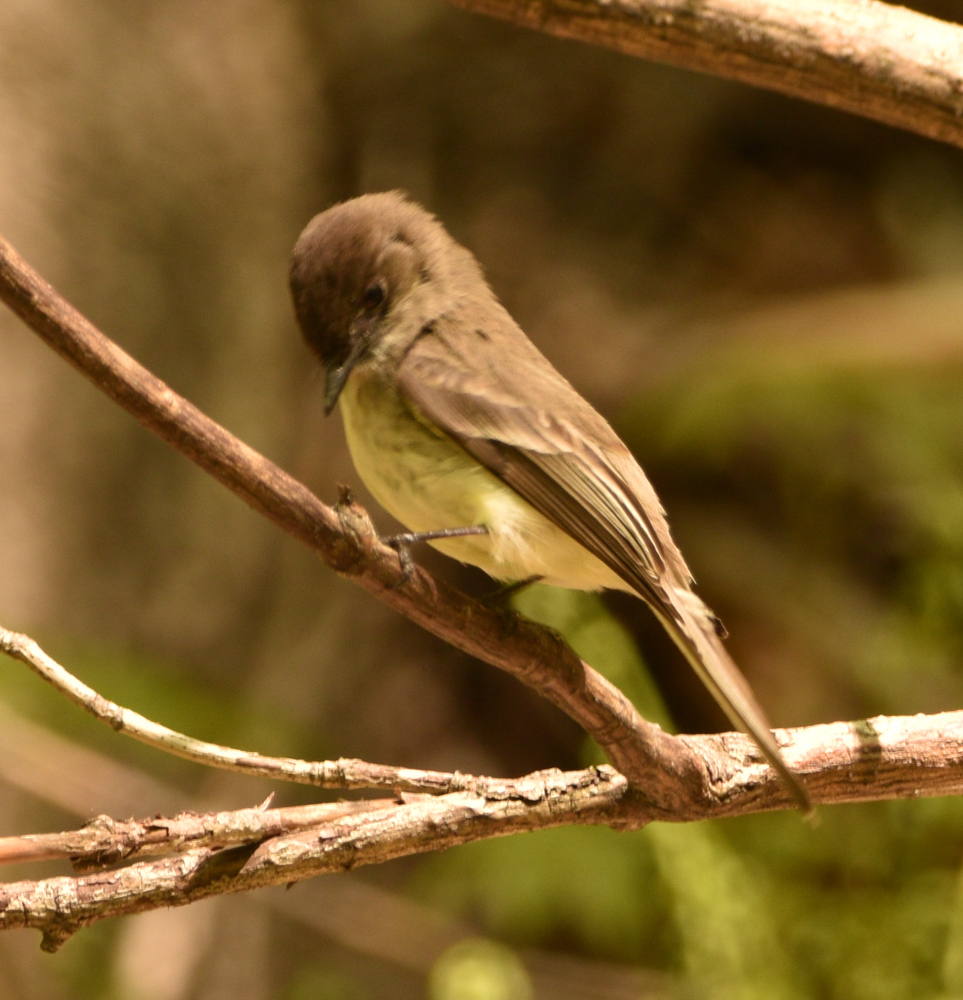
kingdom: Animalia
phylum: Chordata
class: Aves
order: Passeriformes
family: Tyrannidae
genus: Sayornis
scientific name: Sayornis phoebe
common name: Eastern phoebe
